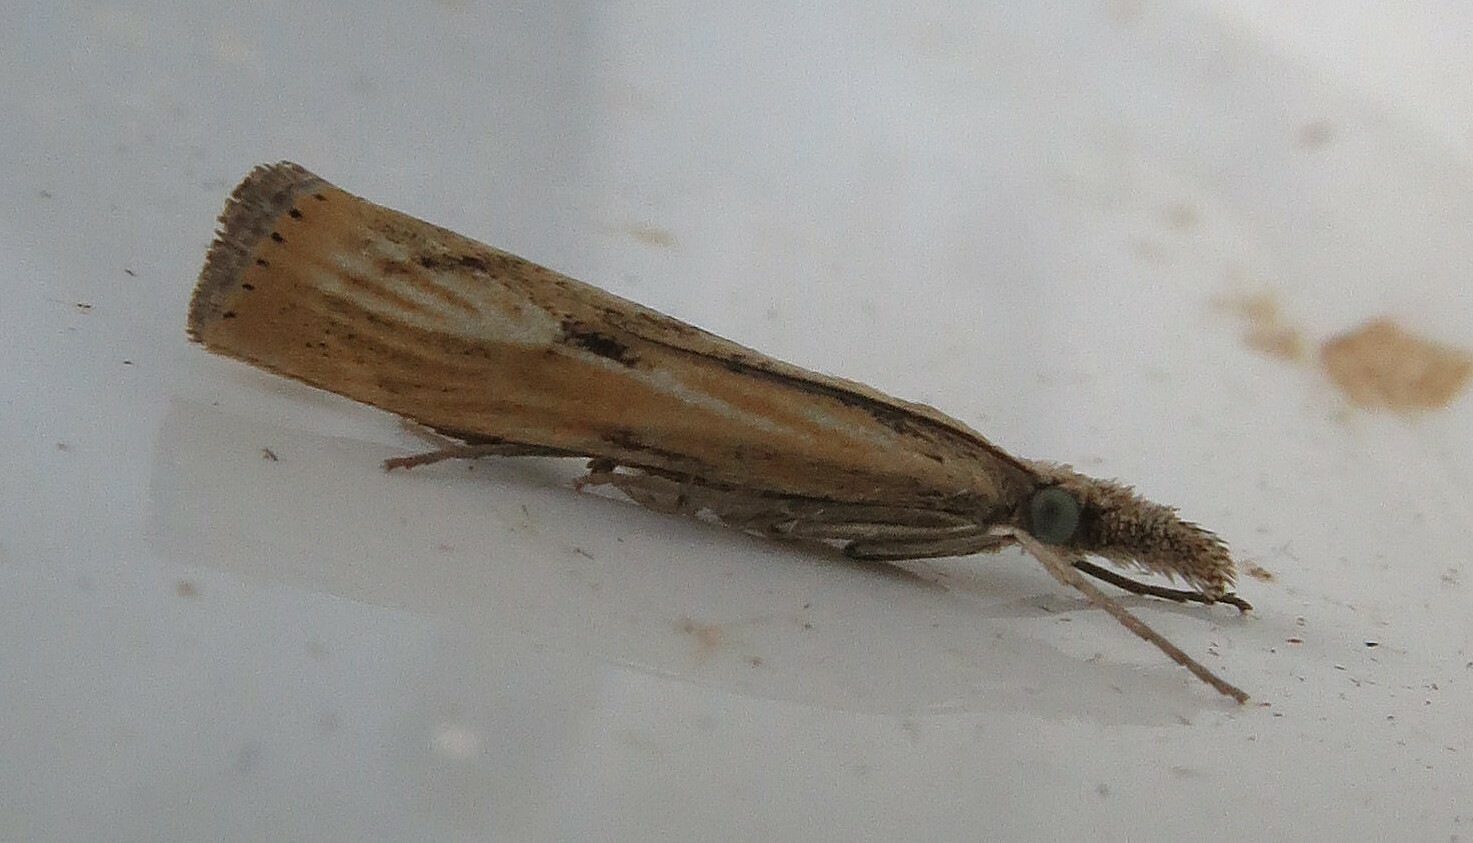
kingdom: Animalia
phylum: Arthropoda
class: Insecta
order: Lepidoptera
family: Crambidae
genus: Agriphila
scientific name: Agriphila inquinatella
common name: Barred grass-veneer
